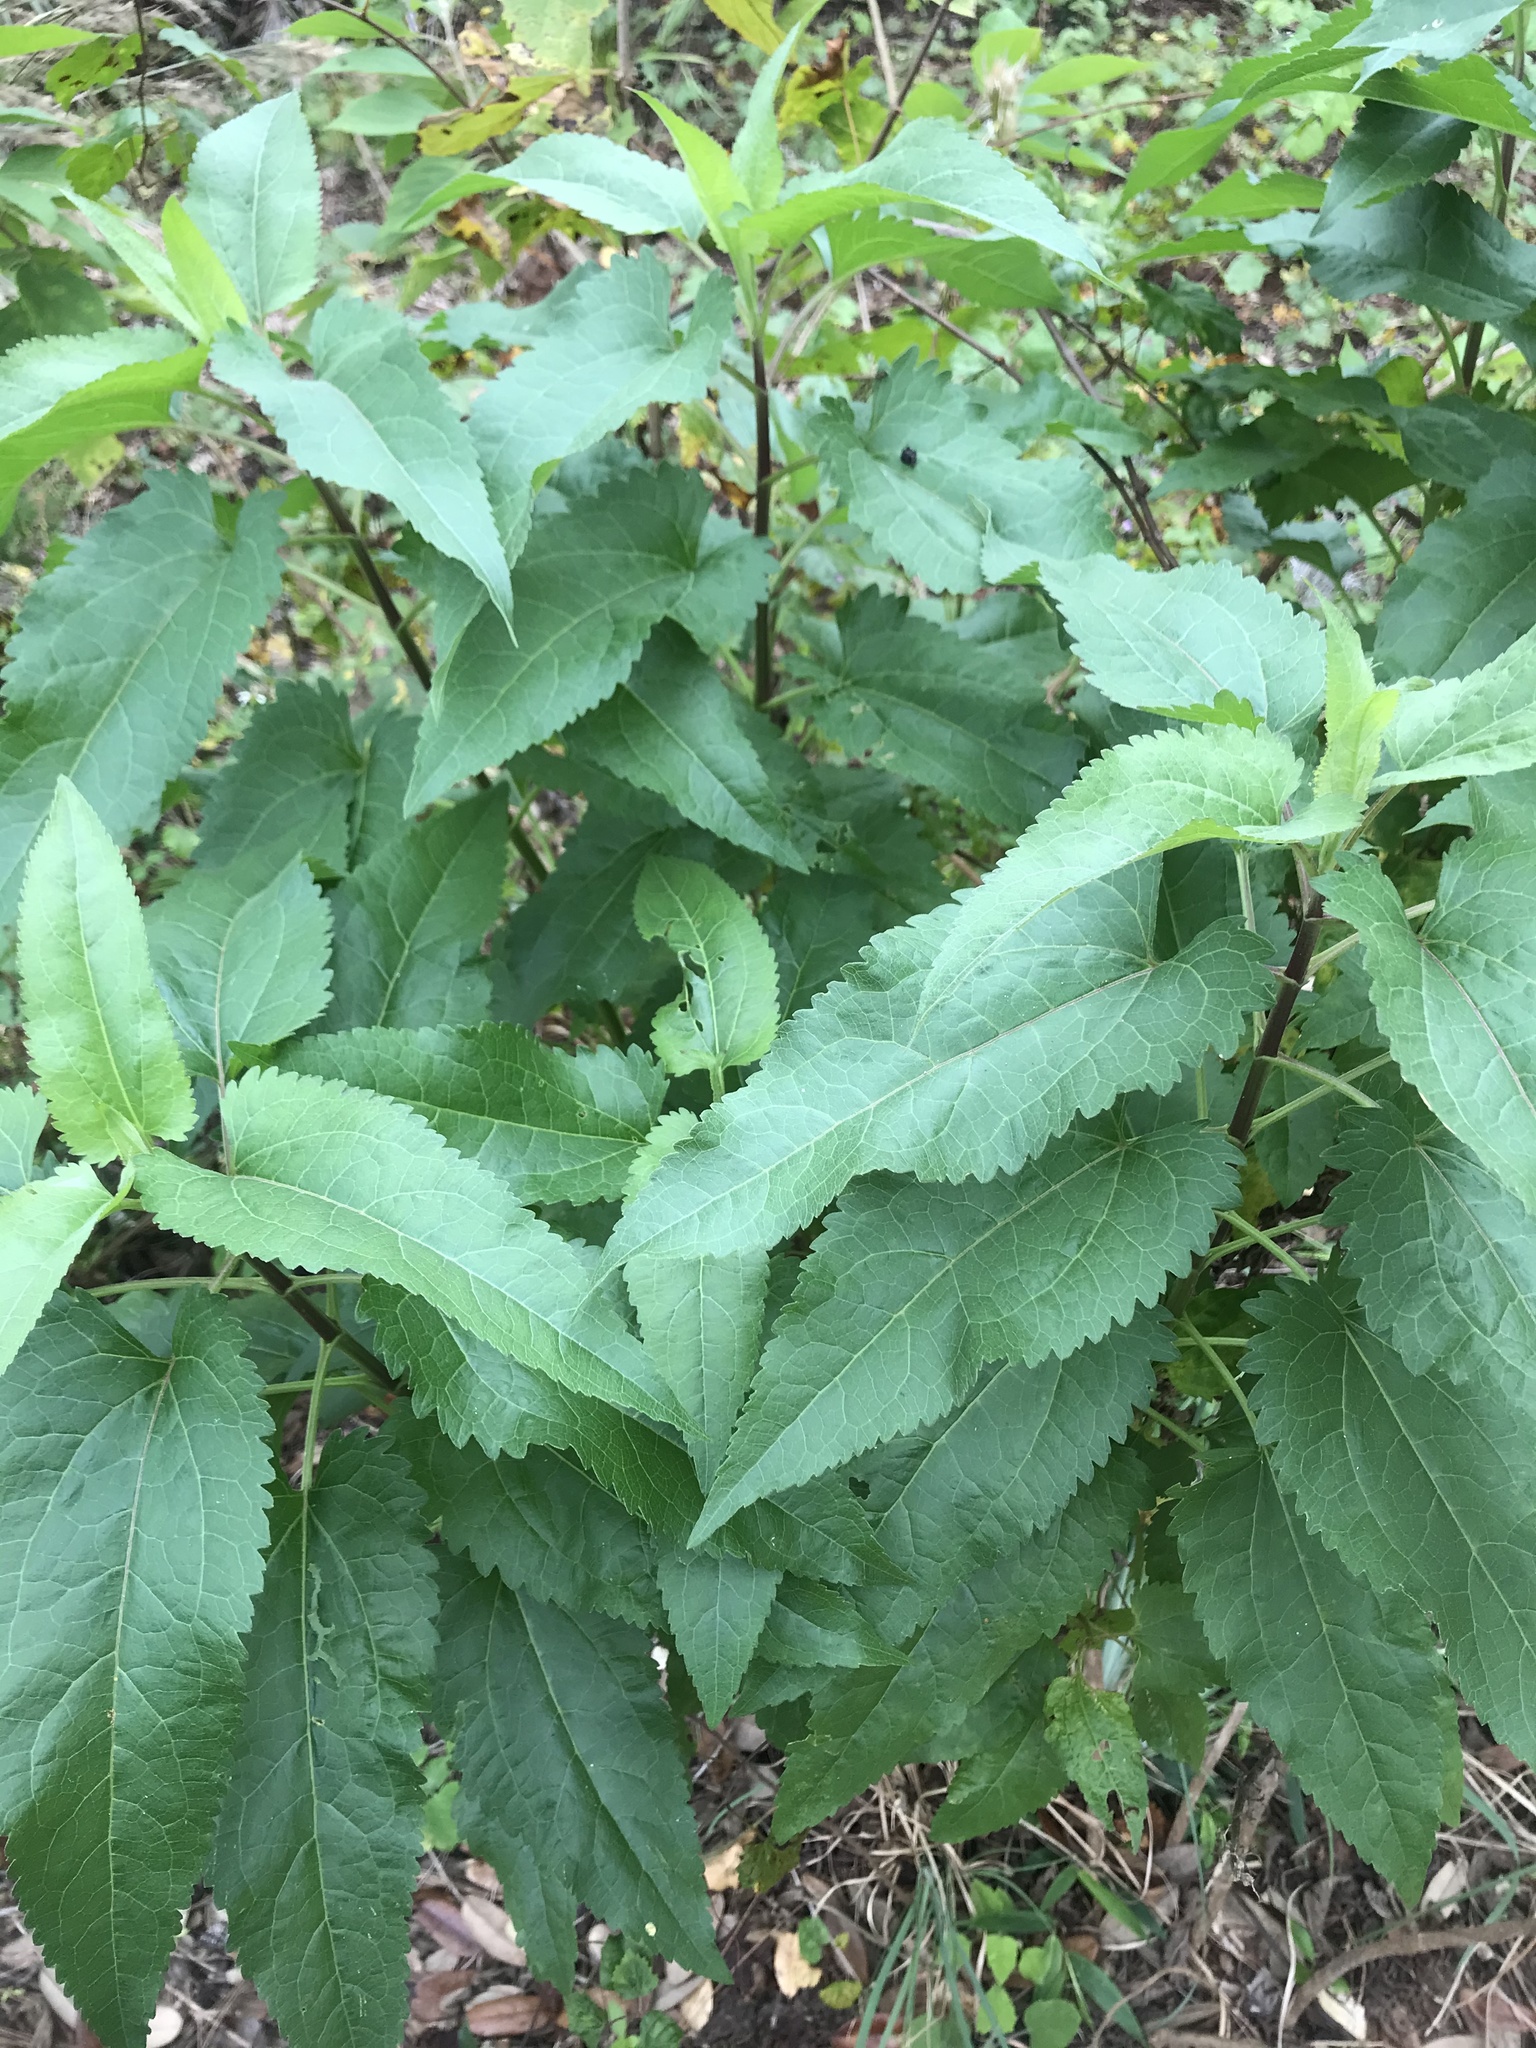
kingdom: Plantae
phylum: Tracheophyta
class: Magnoliopsida
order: Caryophyllales
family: Phytolaccaceae
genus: Phytolacca
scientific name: Phytolacca americana
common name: American pokeweed
